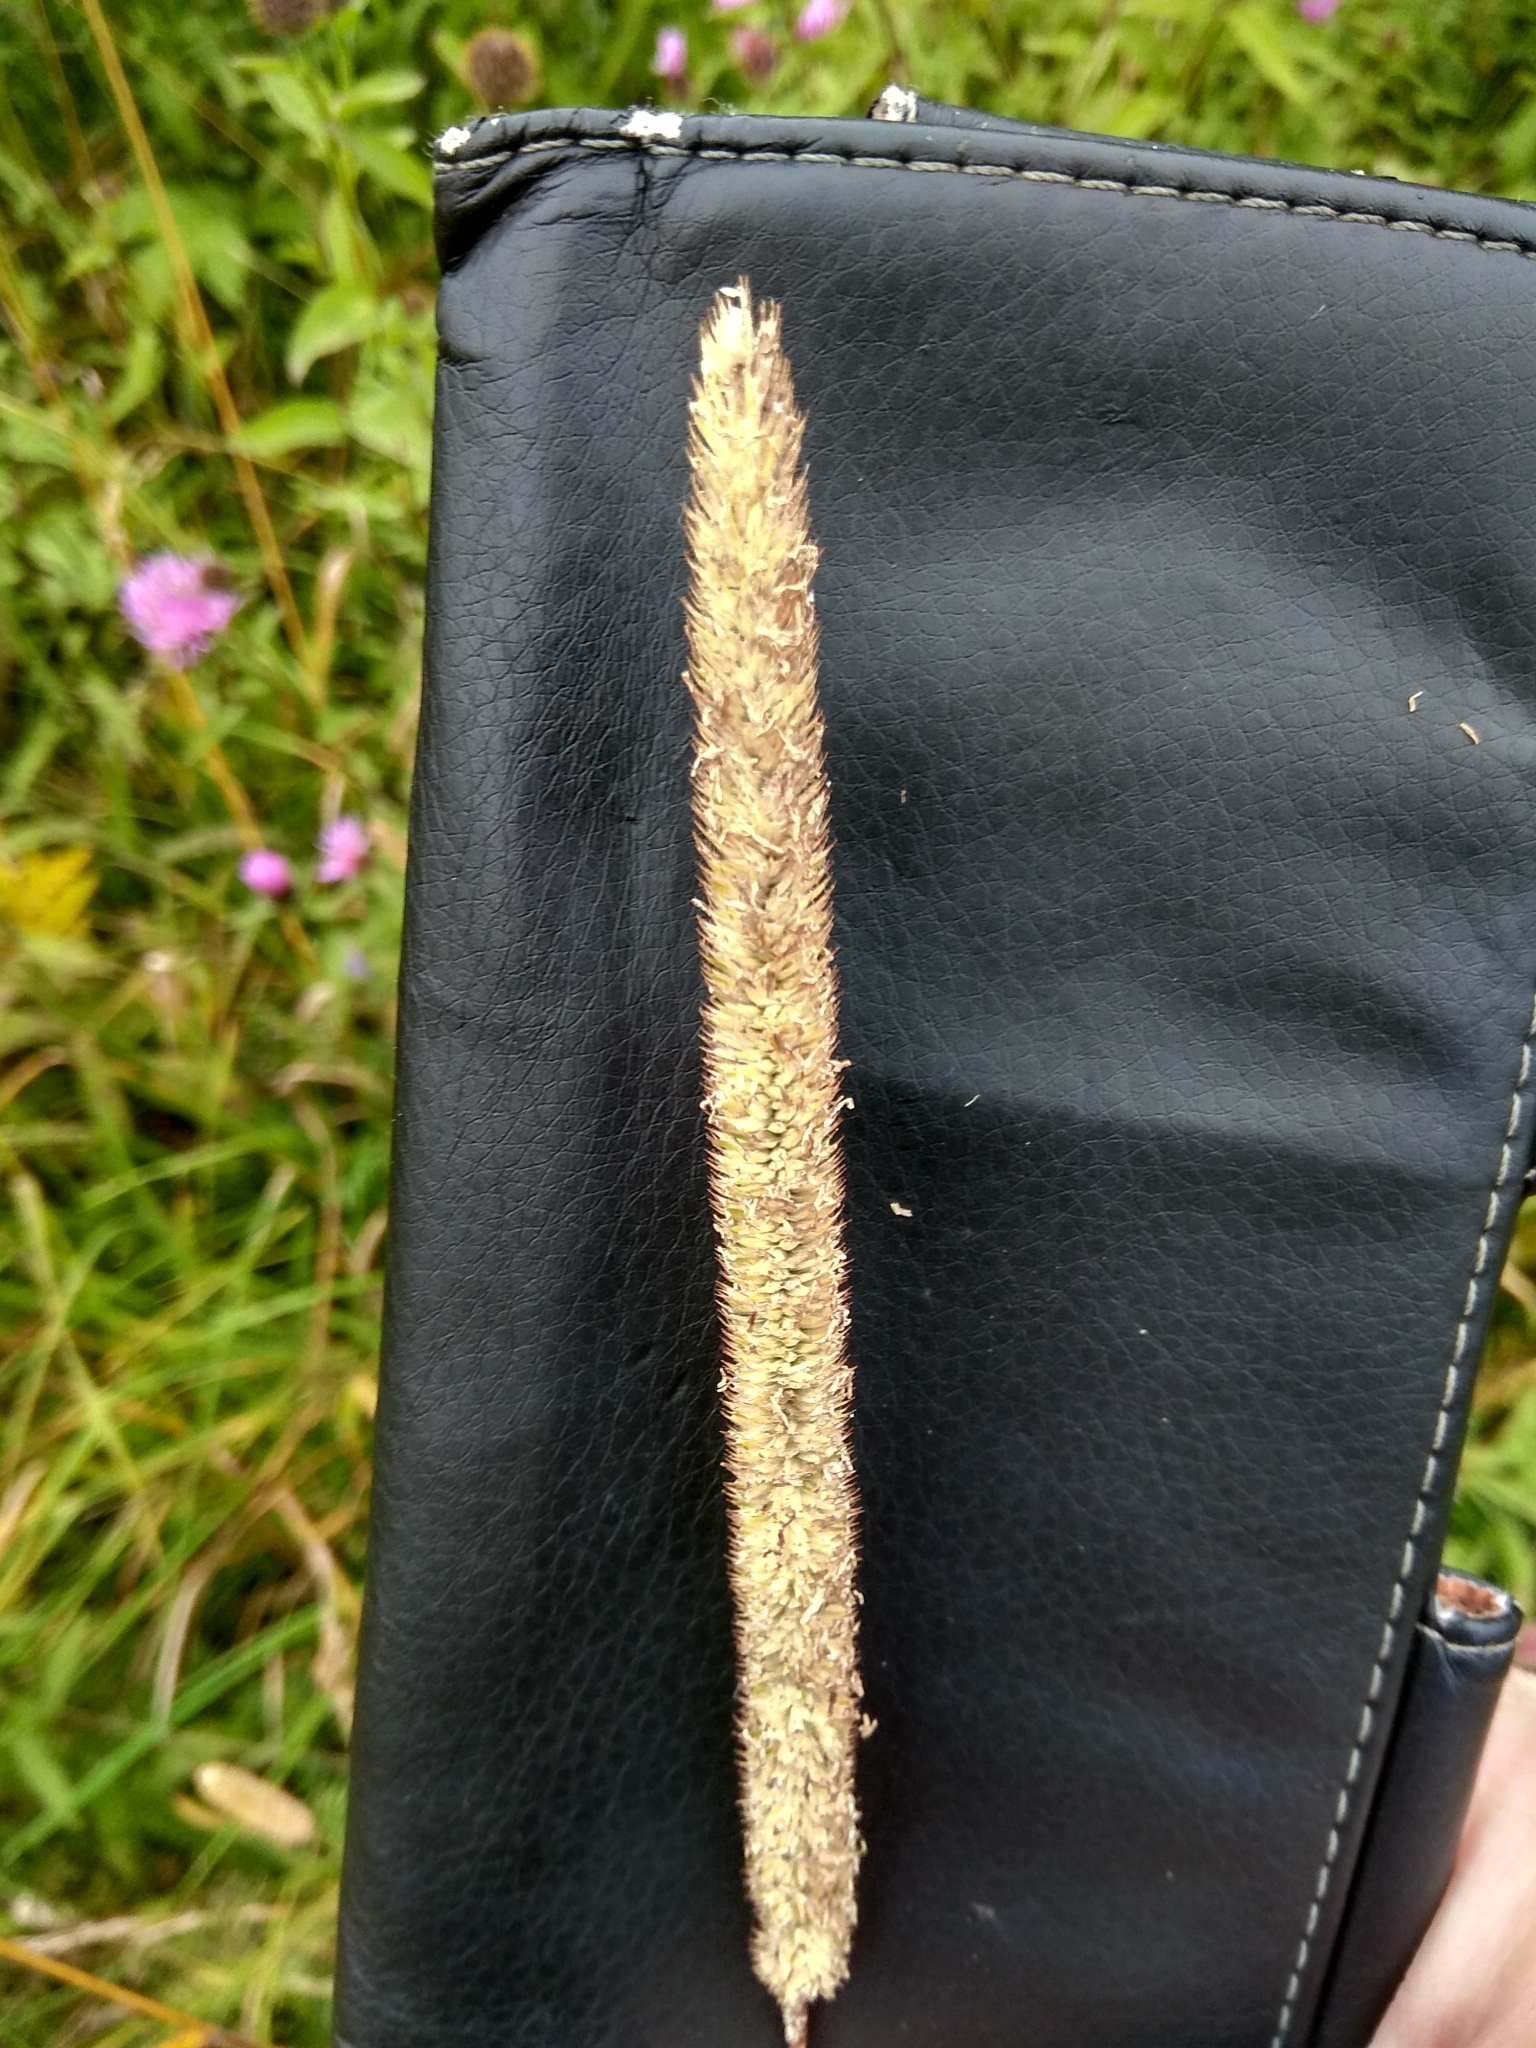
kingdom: Plantae
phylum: Tracheophyta
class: Liliopsida
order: Poales
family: Poaceae
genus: Phleum
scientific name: Phleum pratense
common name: Timothy grass
